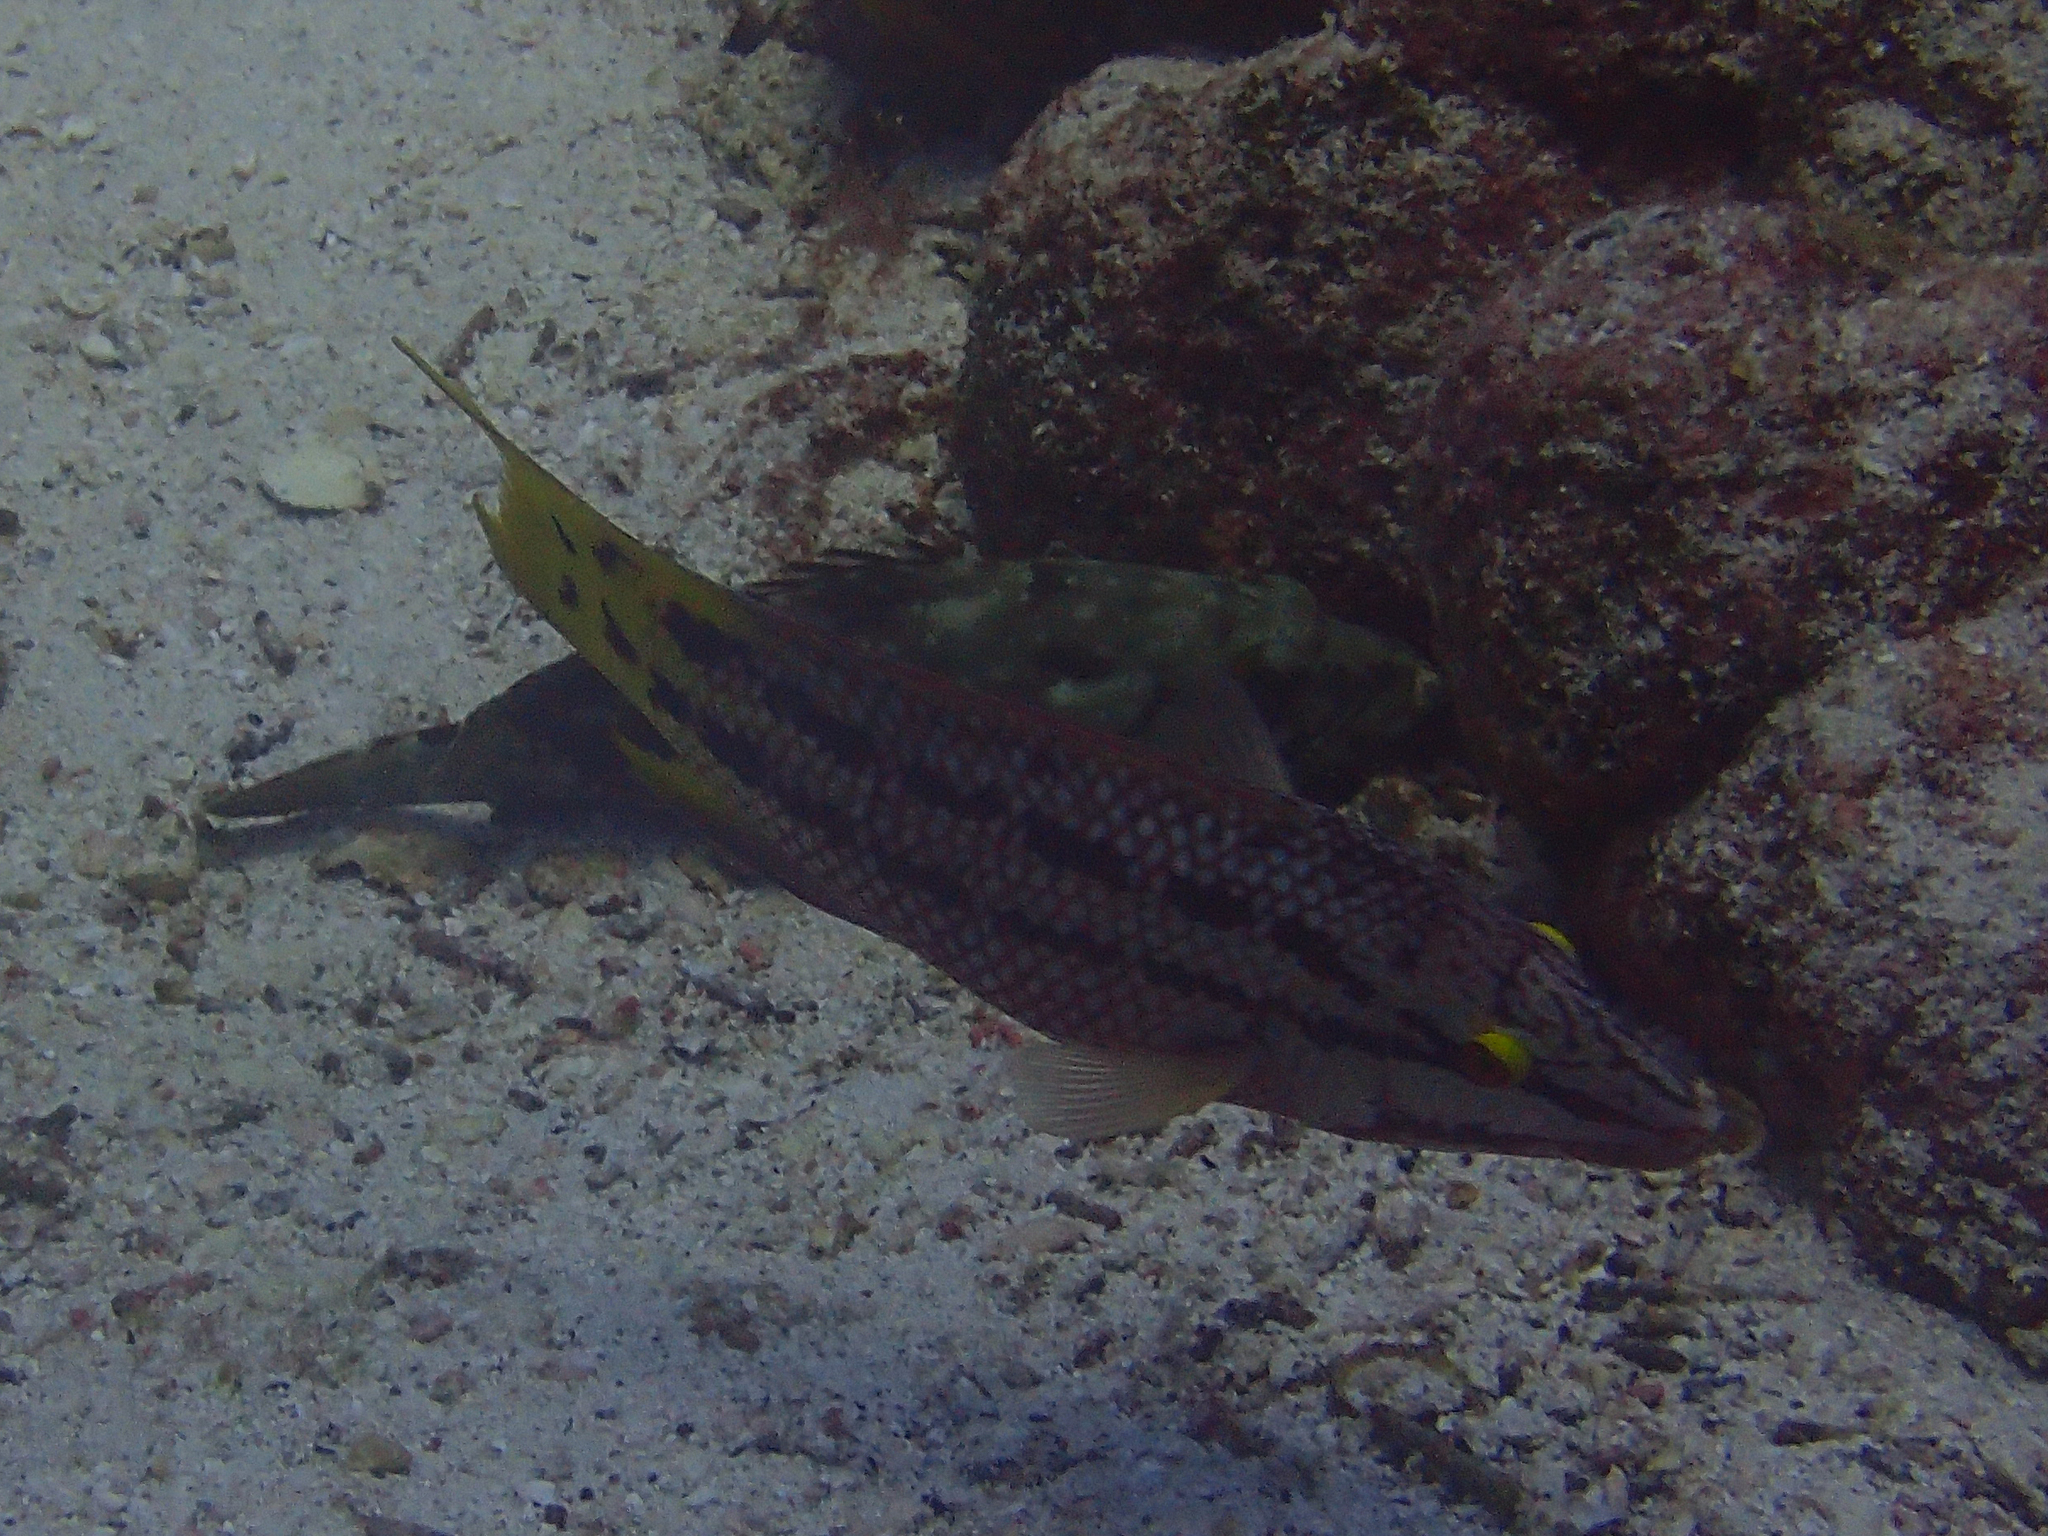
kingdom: Animalia
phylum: Chordata
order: Perciformes
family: Labridae
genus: Bodianus
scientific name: Bodianus diplotaenia
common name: Mexican hogfish
